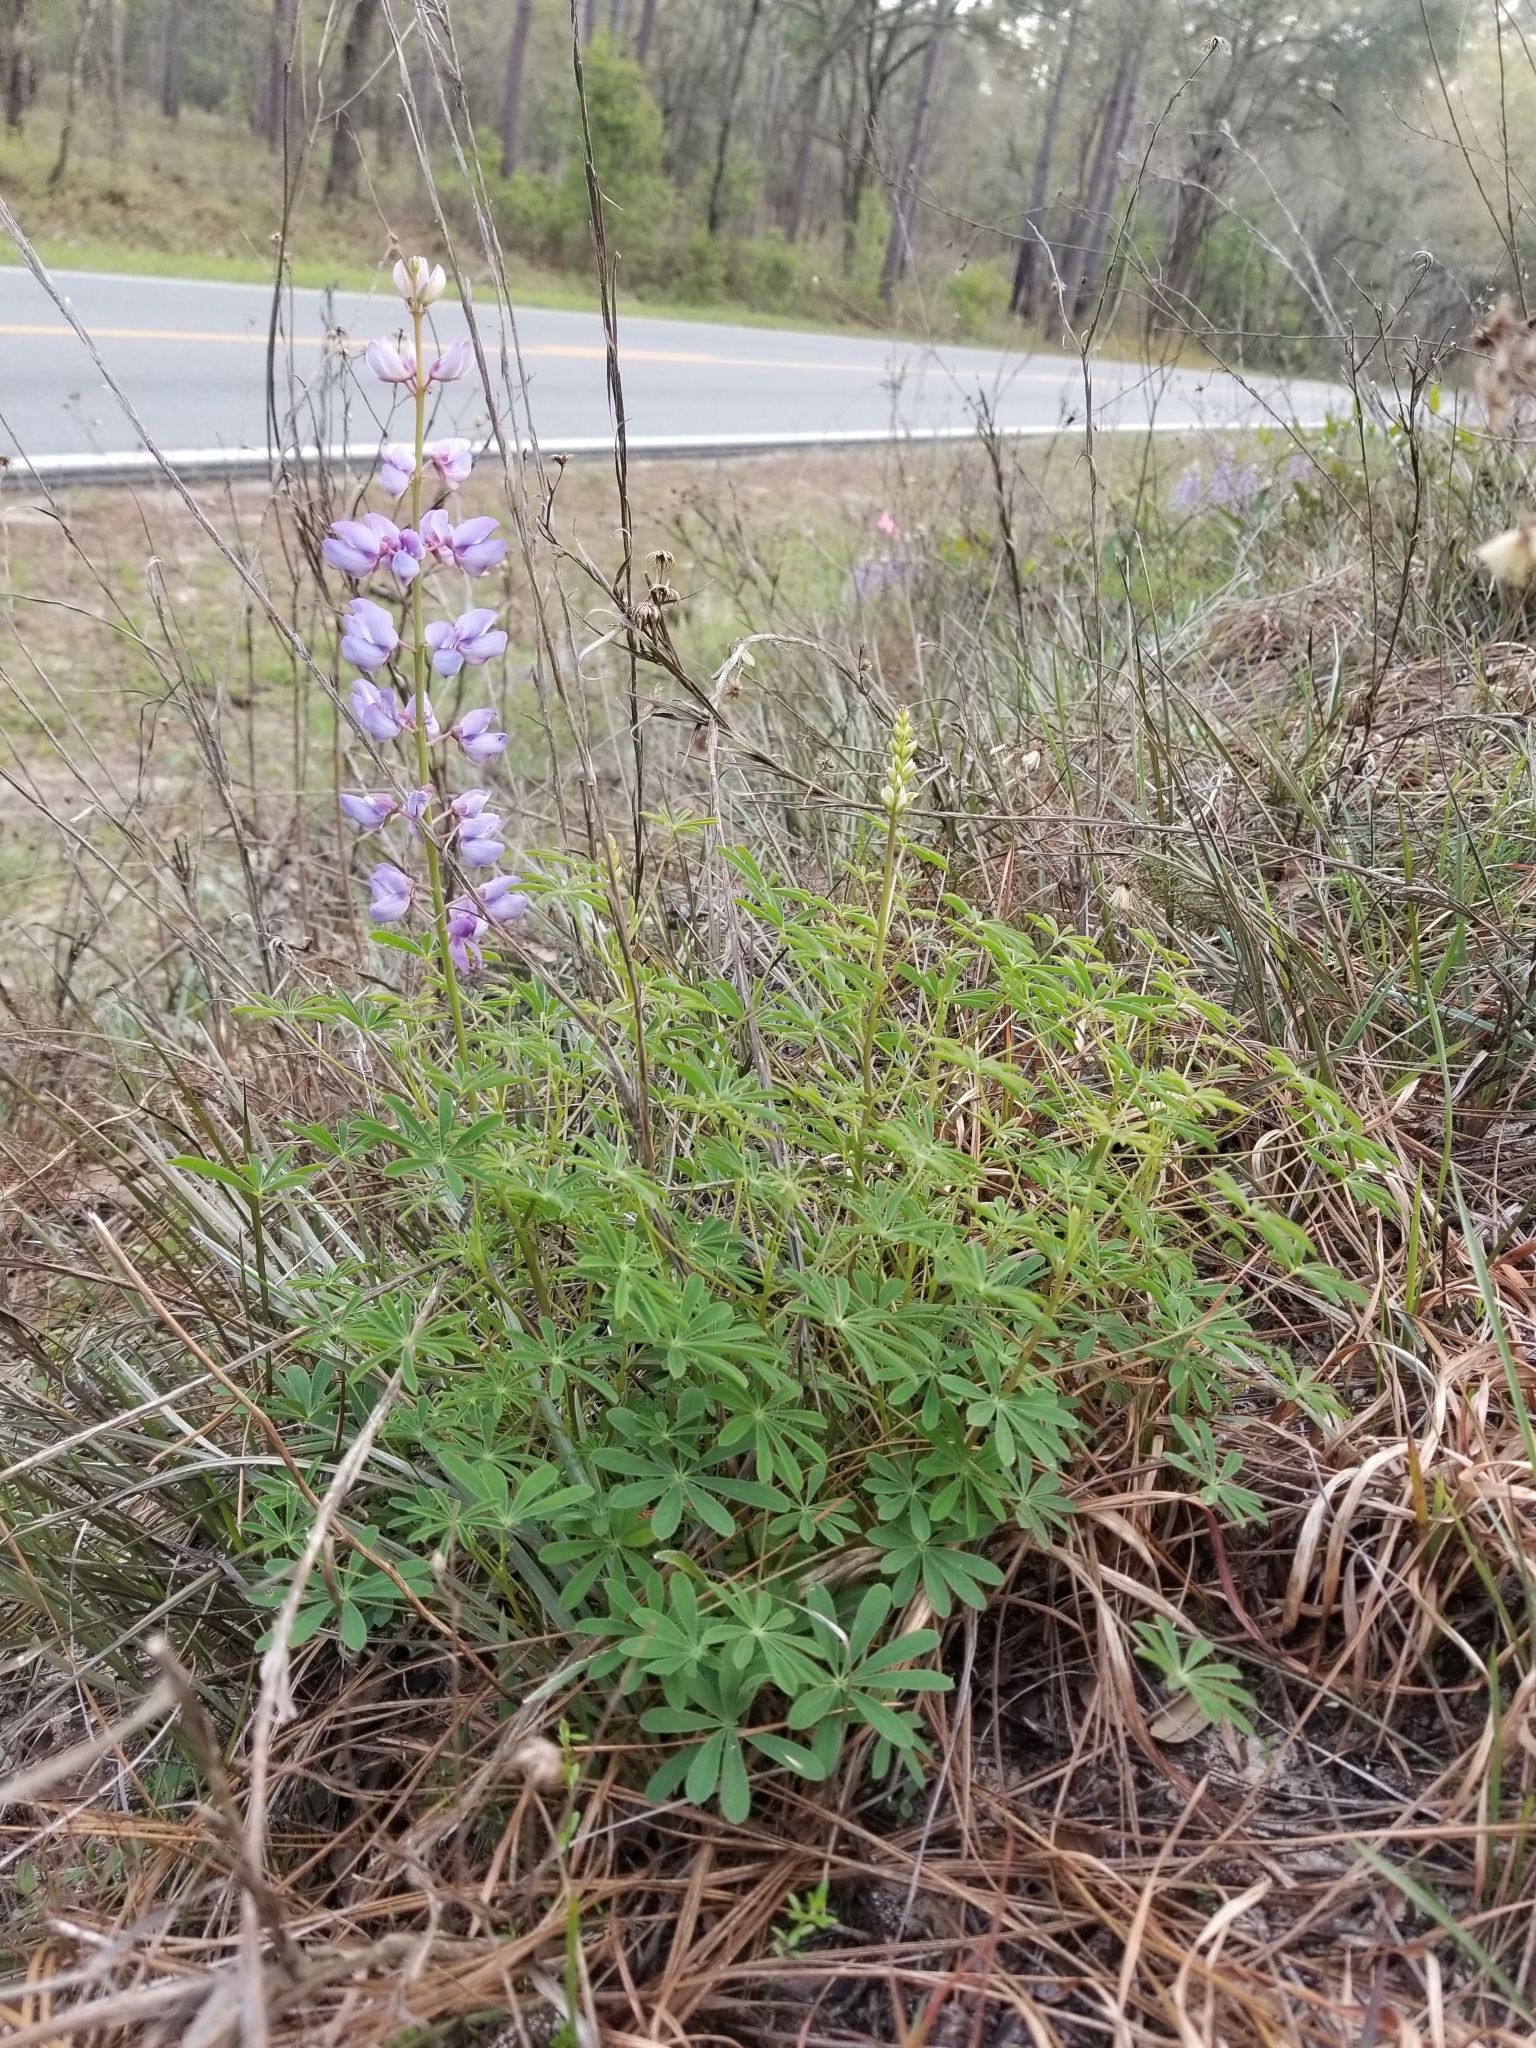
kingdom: Plantae
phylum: Tracheophyta
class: Magnoliopsida
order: Fabales
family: Fabaceae
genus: Lupinus
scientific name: Lupinus perennis
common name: Sundial lupine
